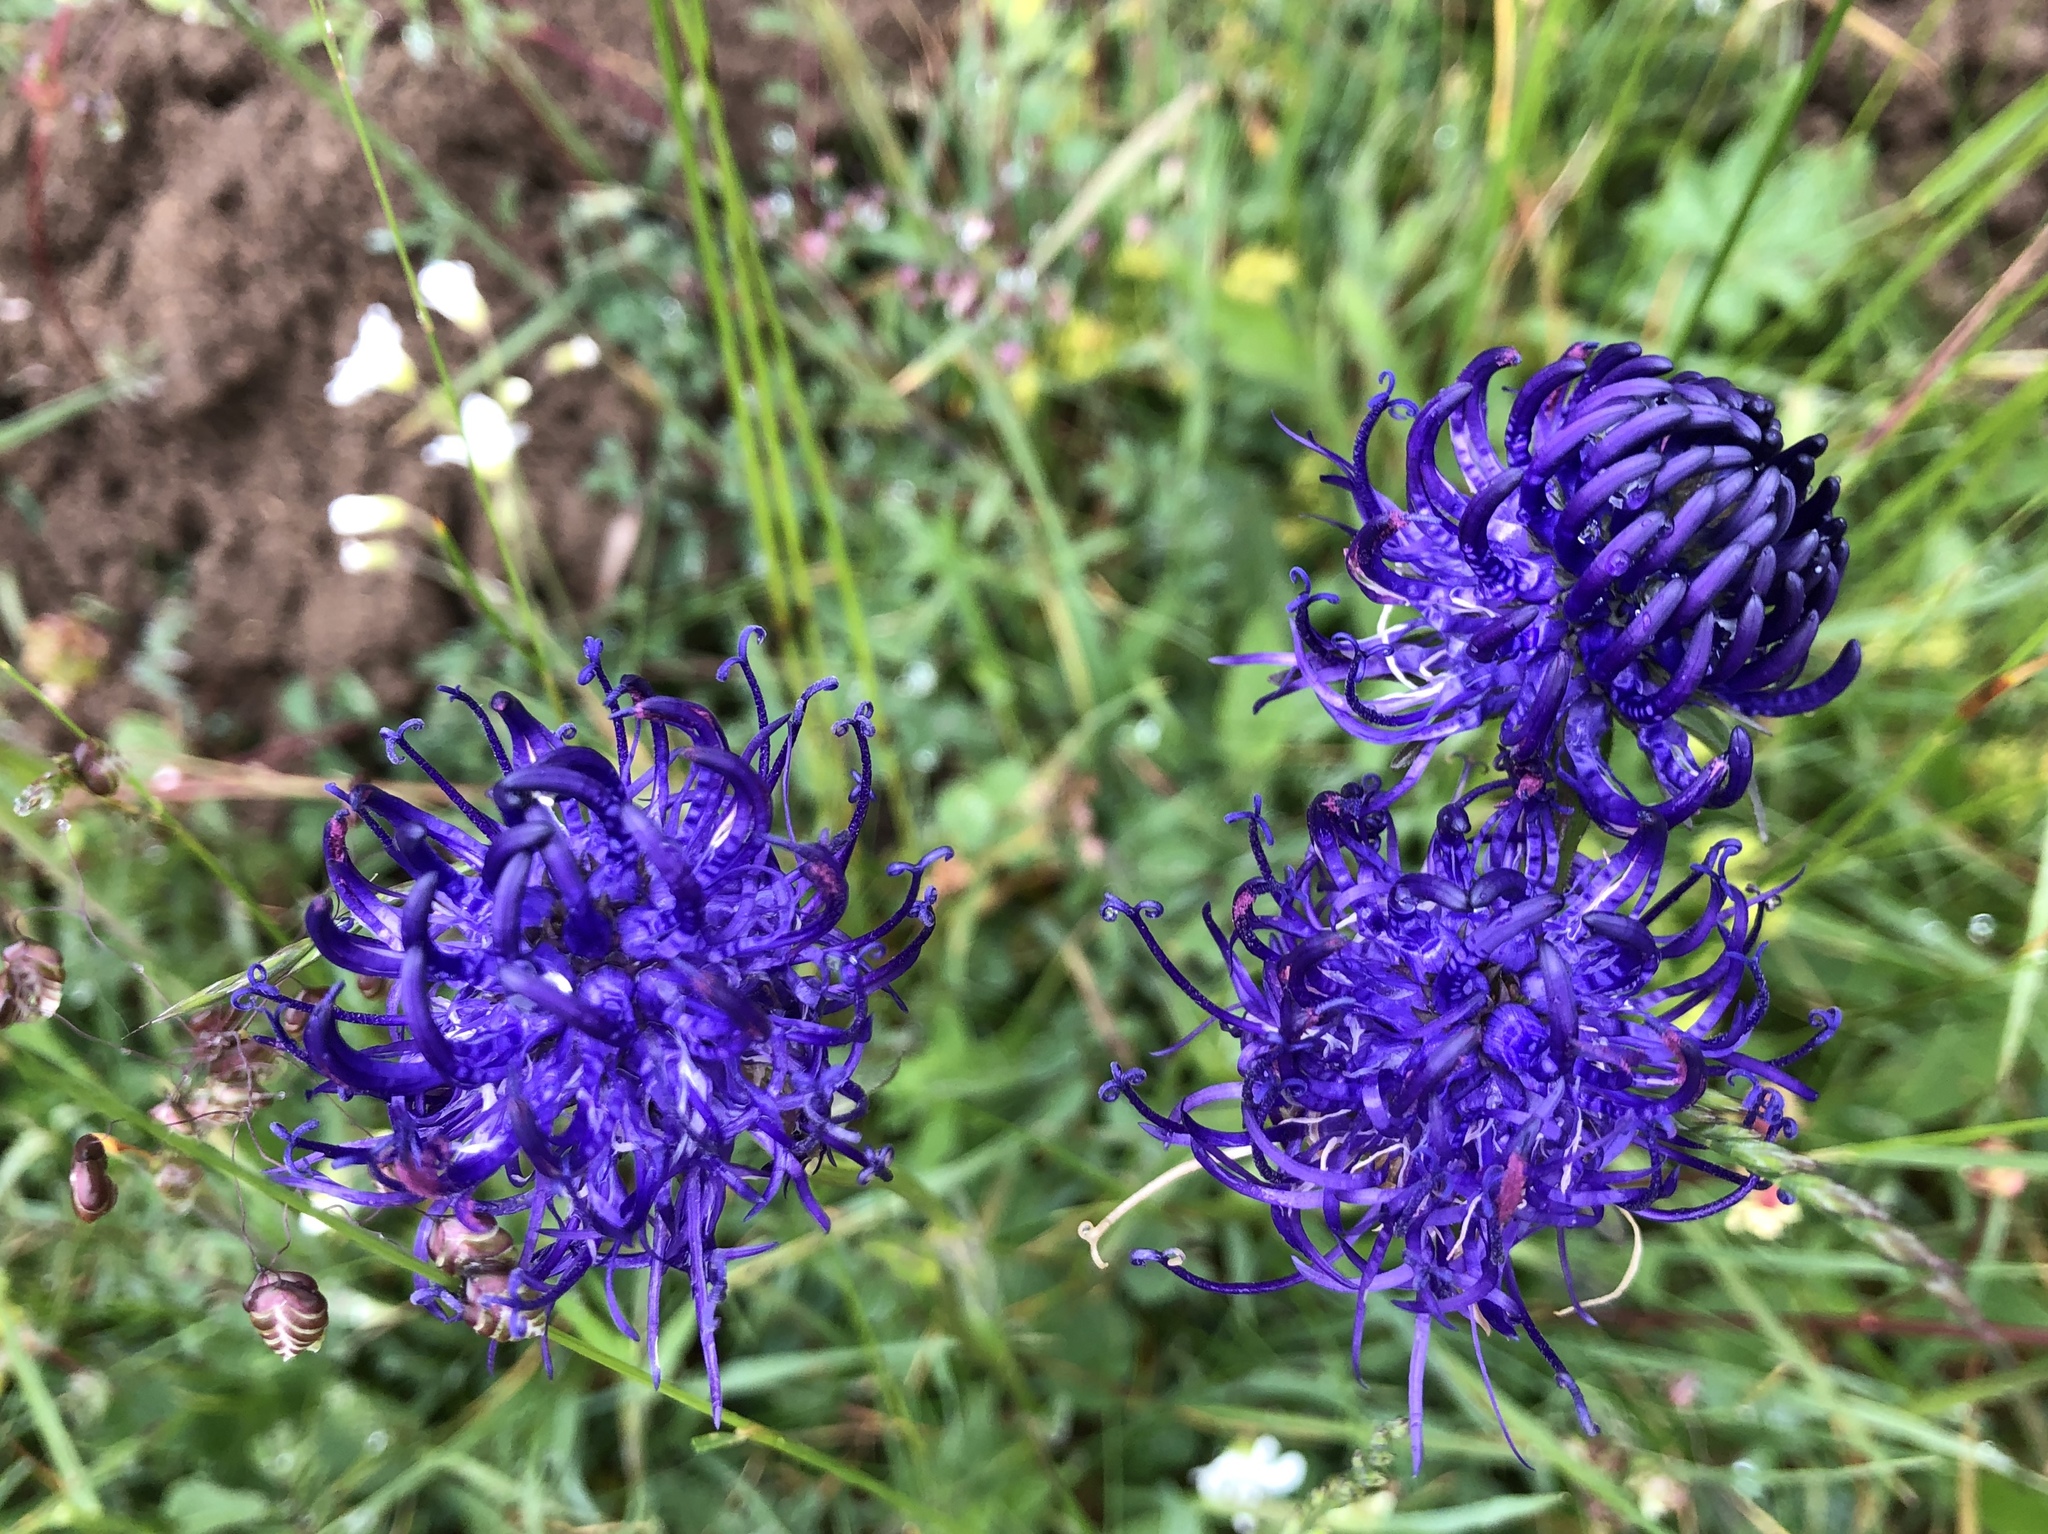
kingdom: Plantae
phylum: Tracheophyta
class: Magnoliopsida
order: Asterales
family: Campanulaceae
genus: Phyteuma
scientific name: Phyteuma orbiculare
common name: Round-headed rampion
